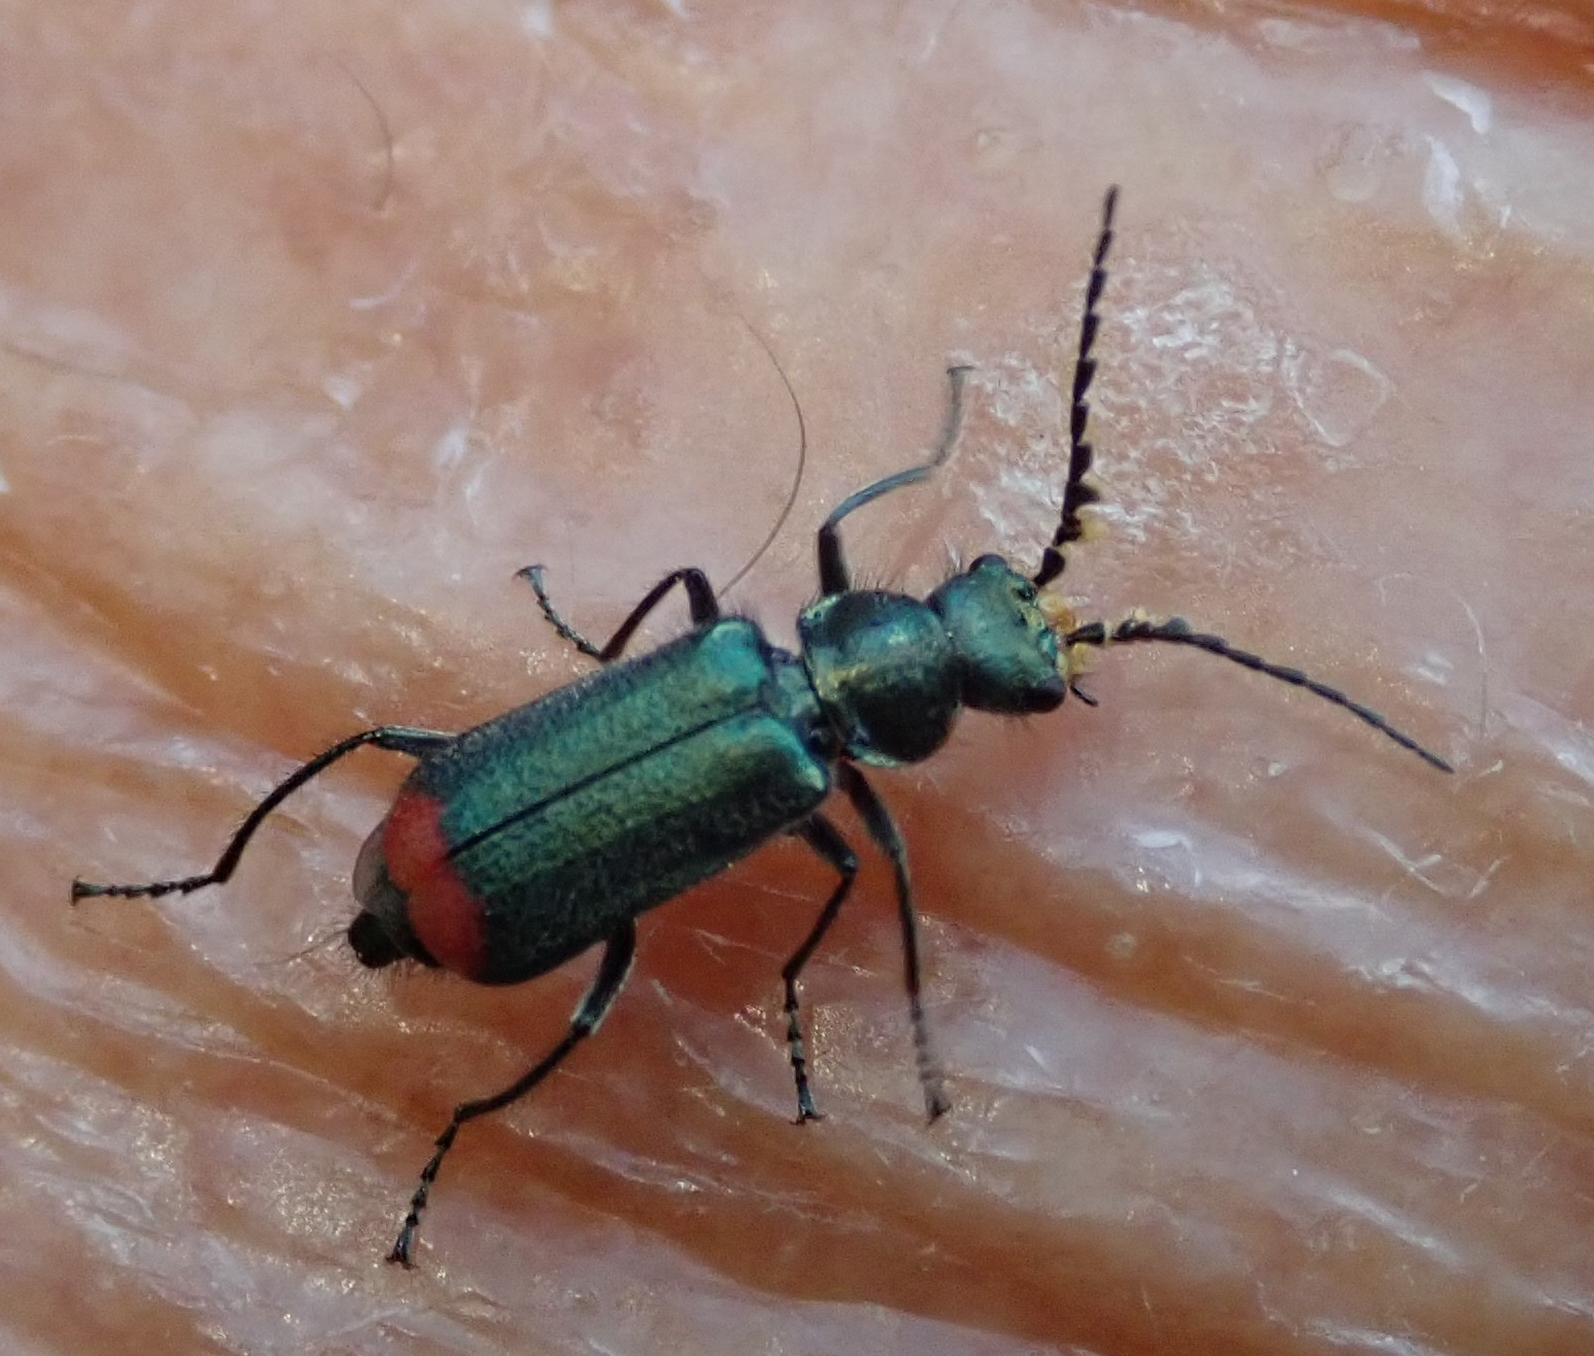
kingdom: Animalia
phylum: Arthropoda
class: Insecta
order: Coleoptera
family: Melyridae
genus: Malachius
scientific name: Malachius bipustulatus
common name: Malachite beetle
